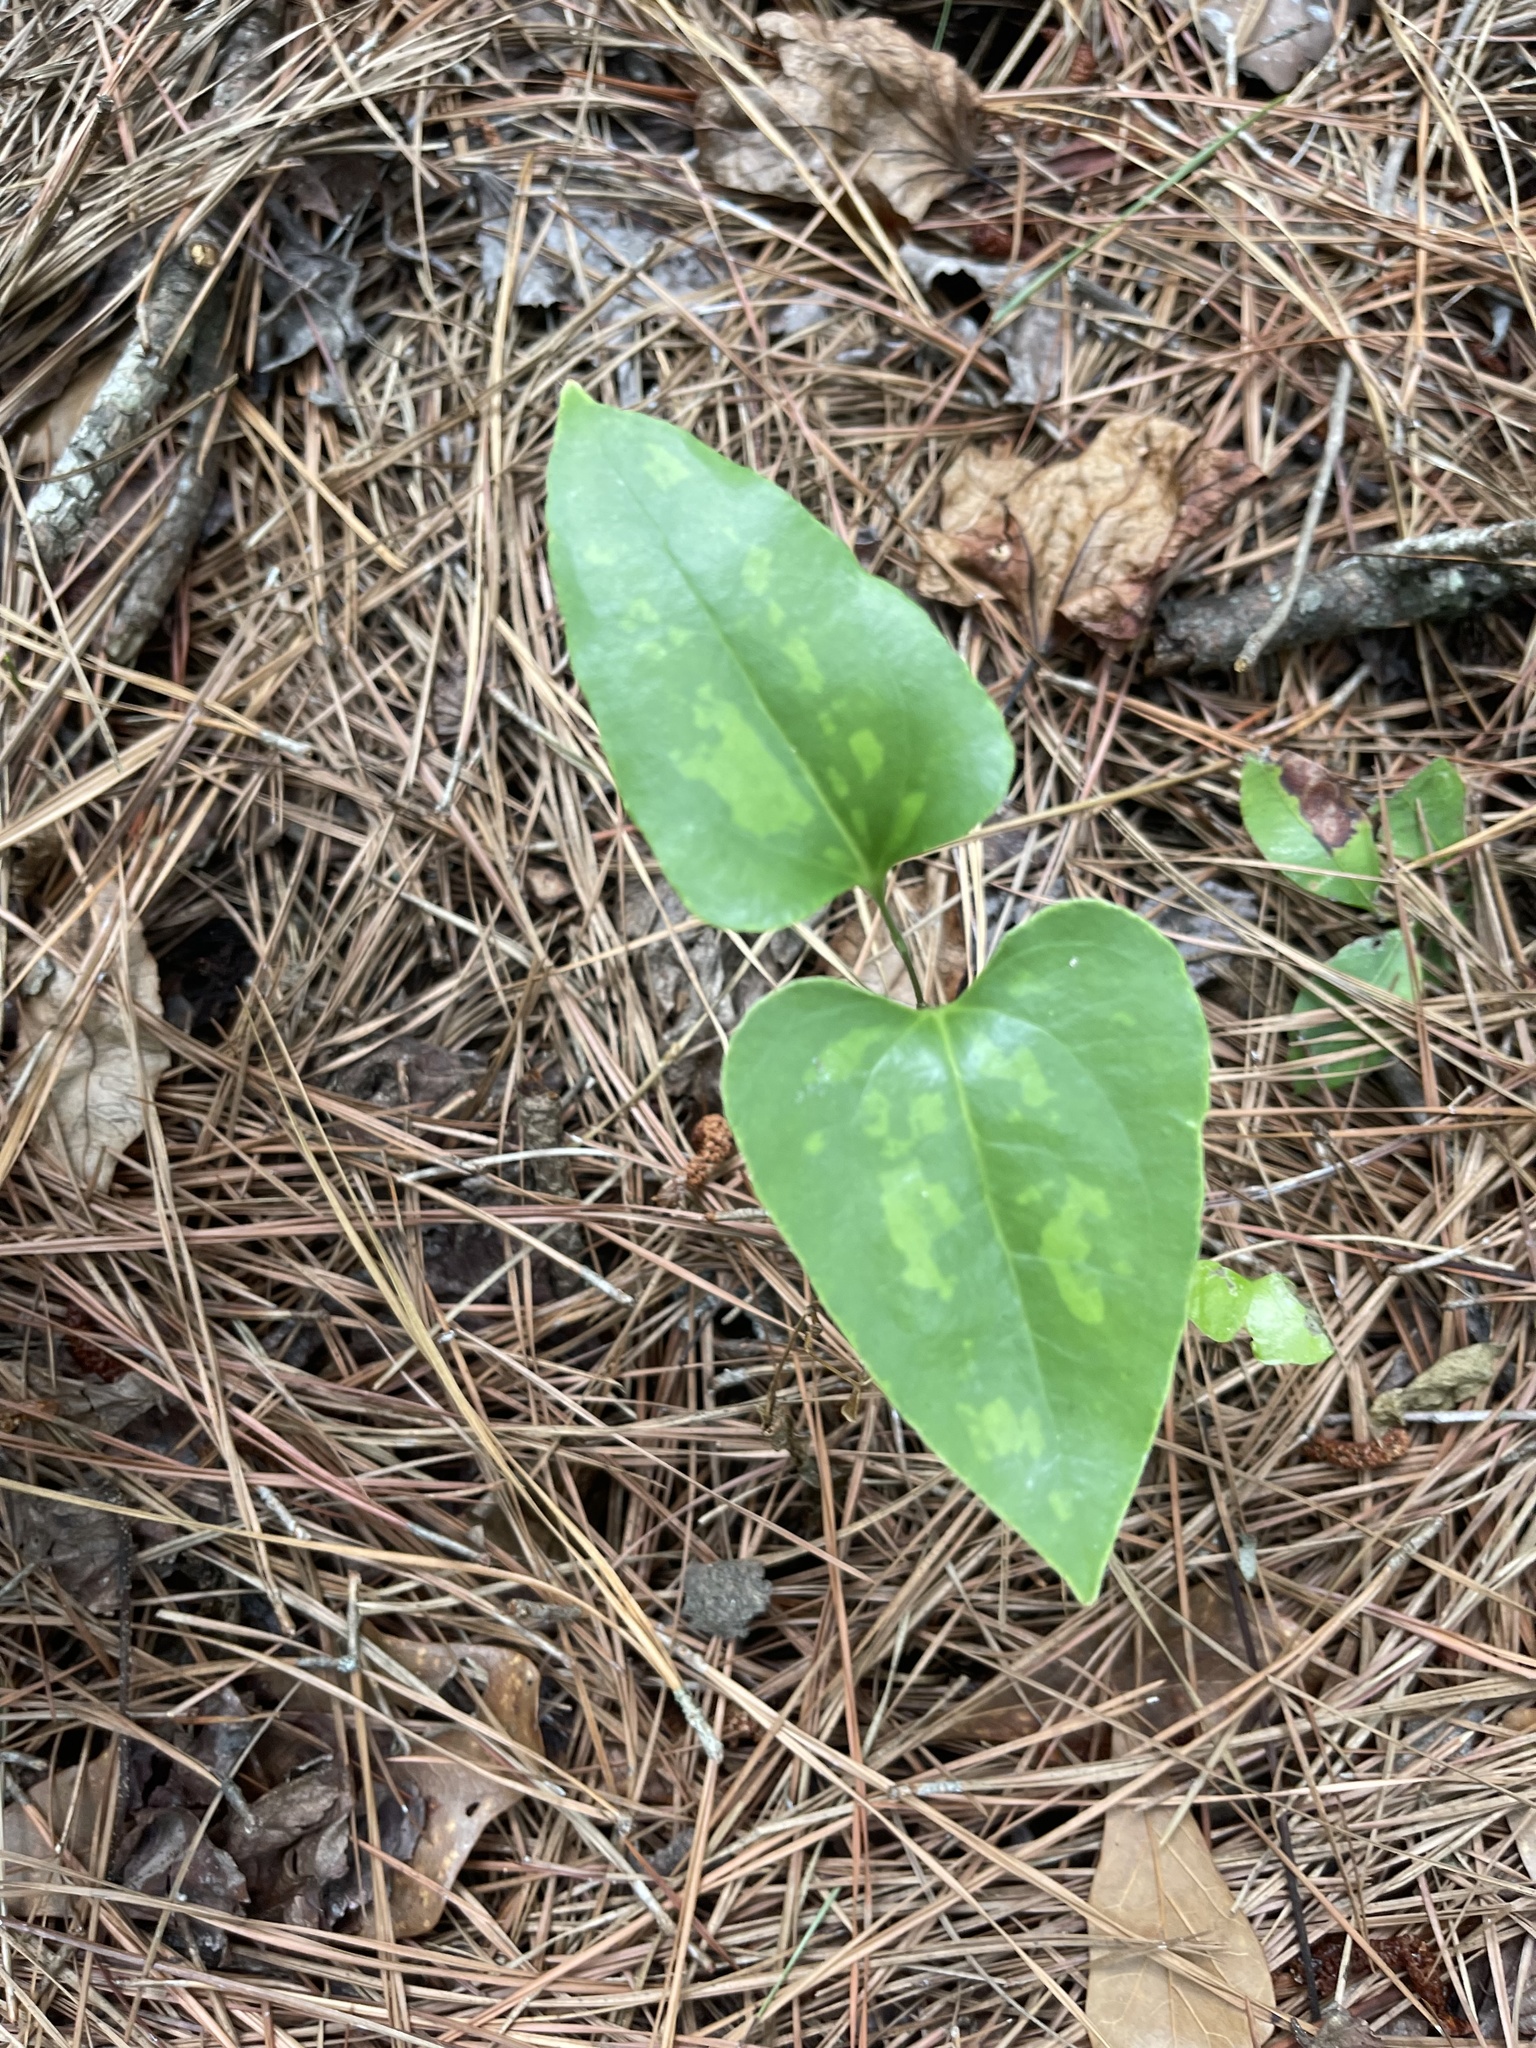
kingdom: Plantae
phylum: Tracheophyta
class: Liliopsida
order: Liliales
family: Smilacaceae
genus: Smilax
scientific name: Smilax maritima
